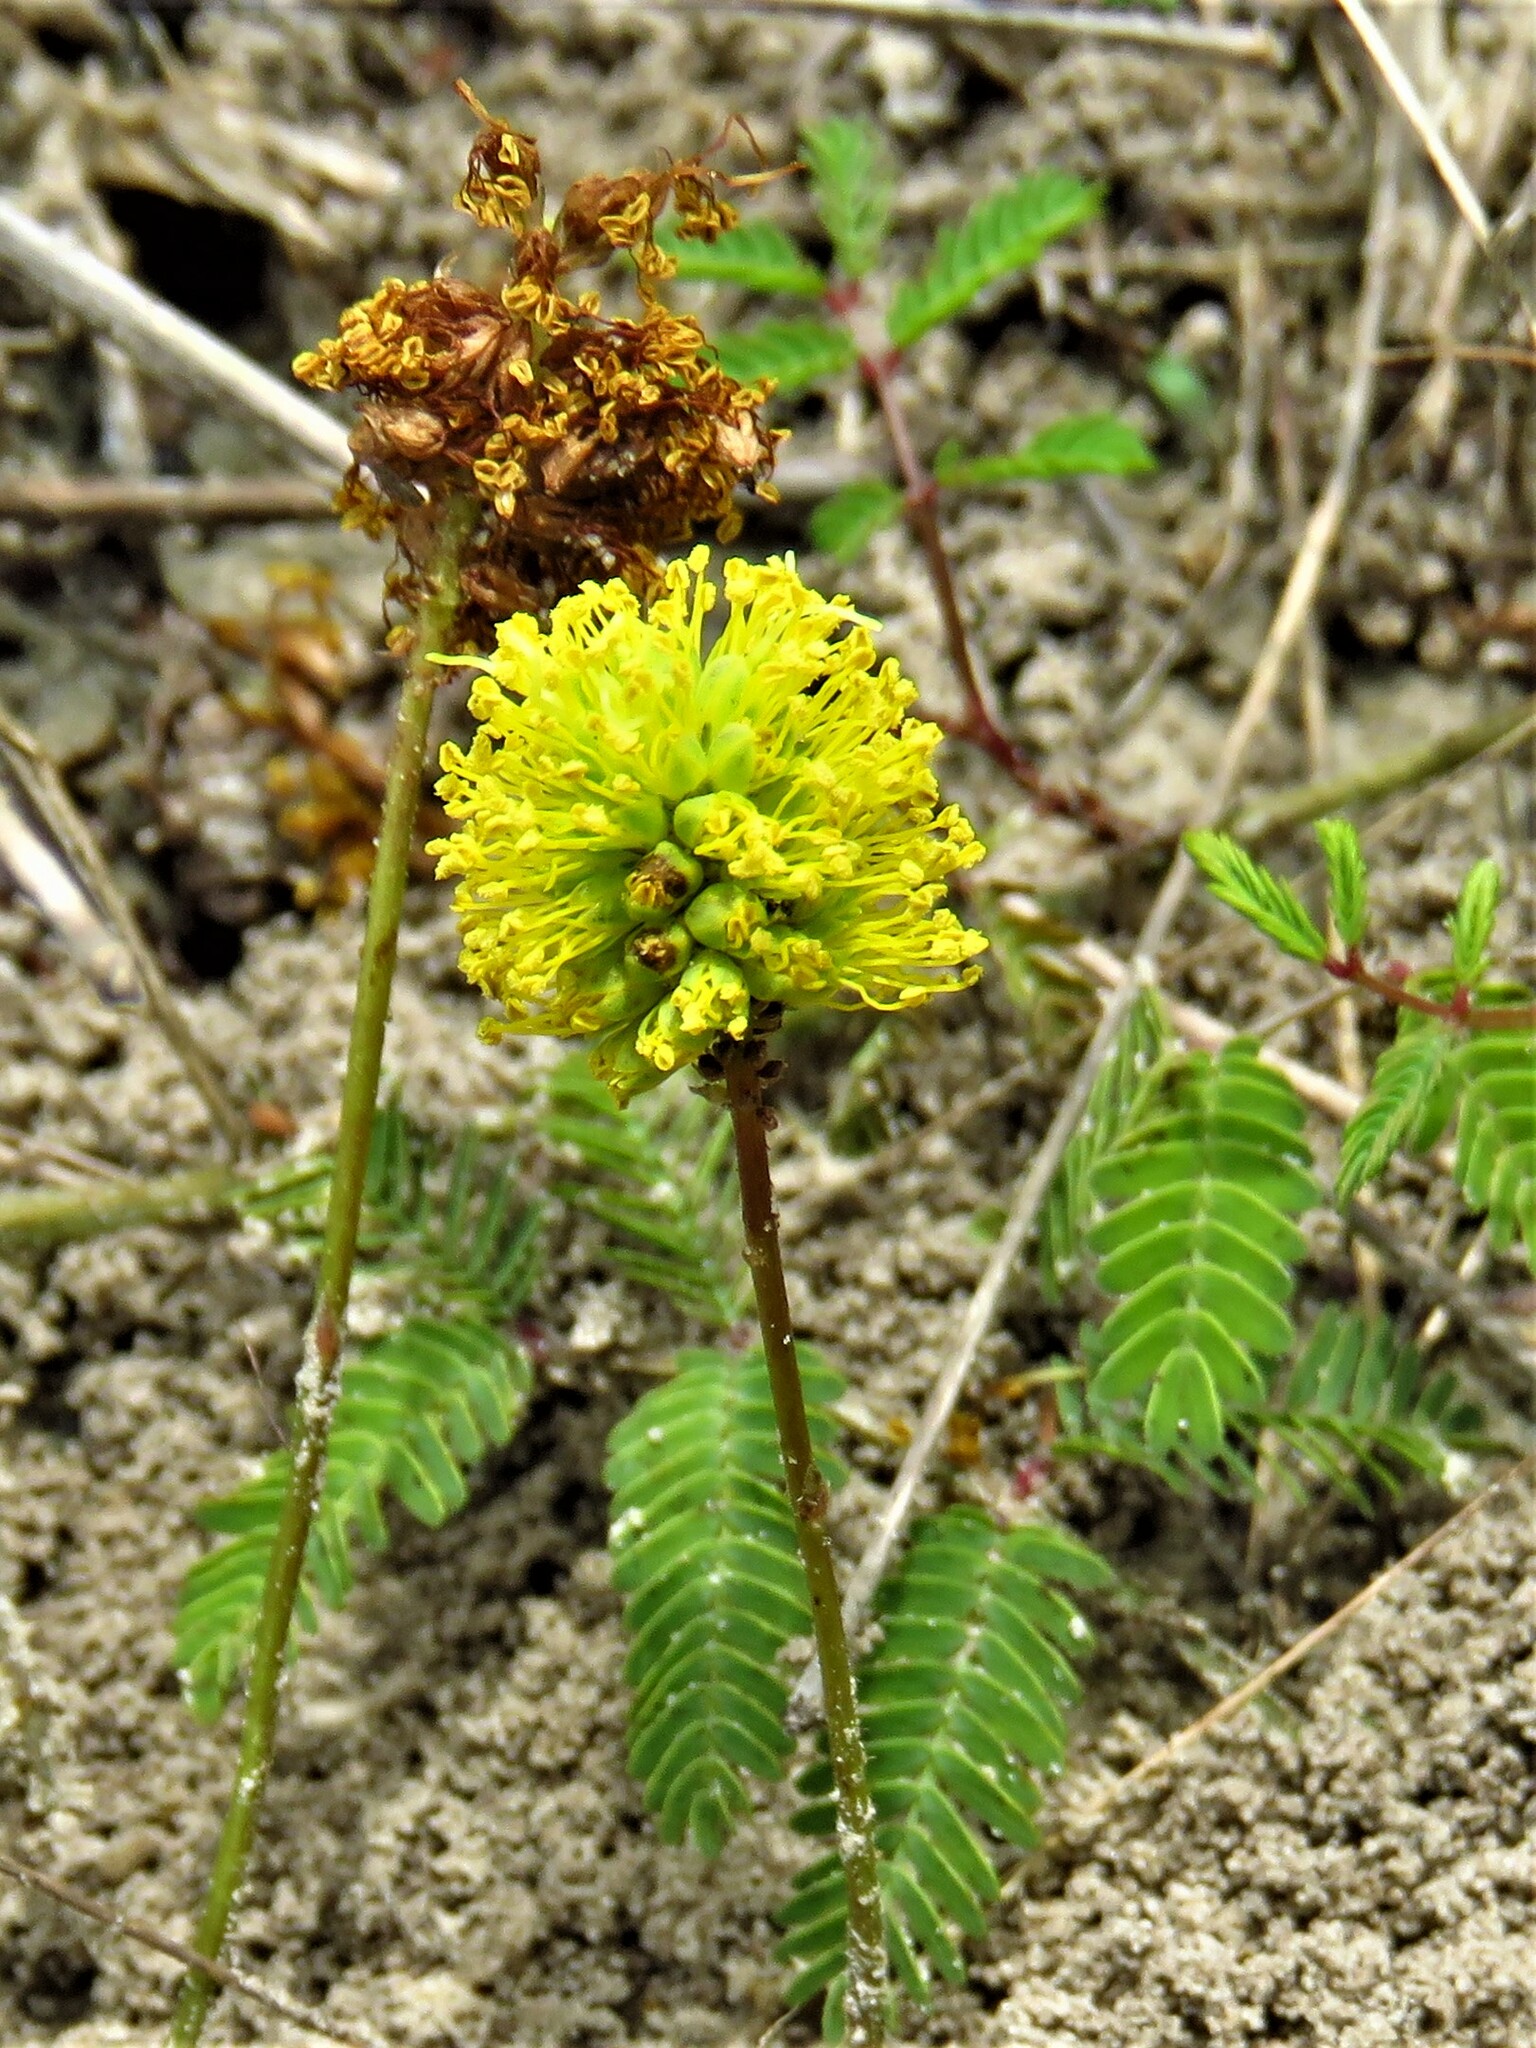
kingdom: Plantae
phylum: Tracheophyta
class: Magnoliopsida
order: Fabales
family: Fabaceae
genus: Neptunia
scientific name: Neptunia lutea
